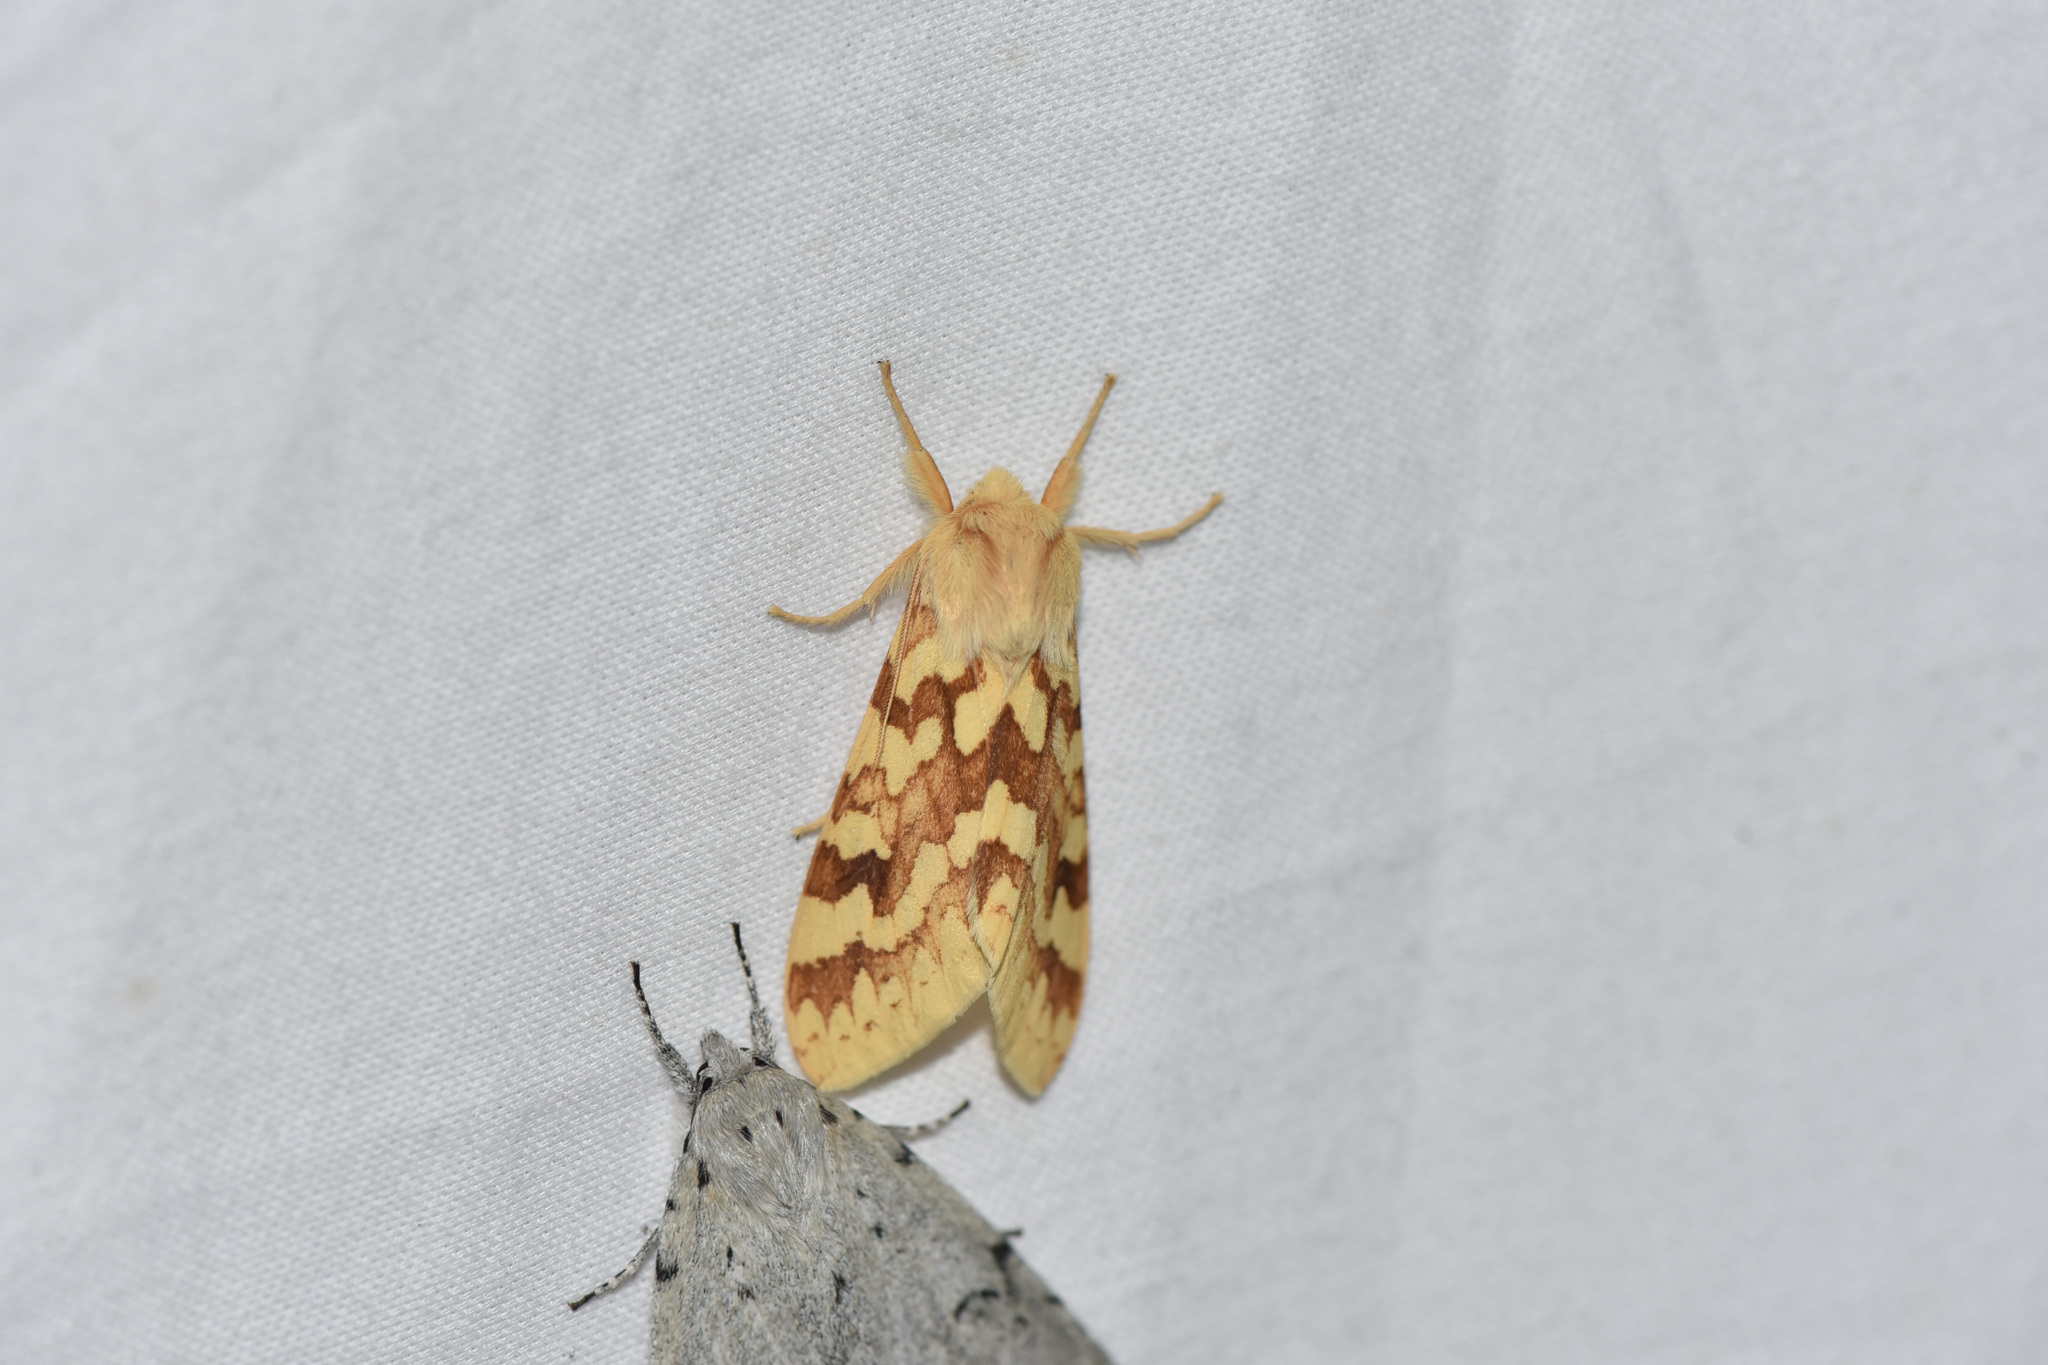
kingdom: Animalia
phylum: Arthropoda
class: Insecta
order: Lepidoptera
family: Erebidae
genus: Lophocampa
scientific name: Lophocampa maculata
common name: Spotted tussock moth
